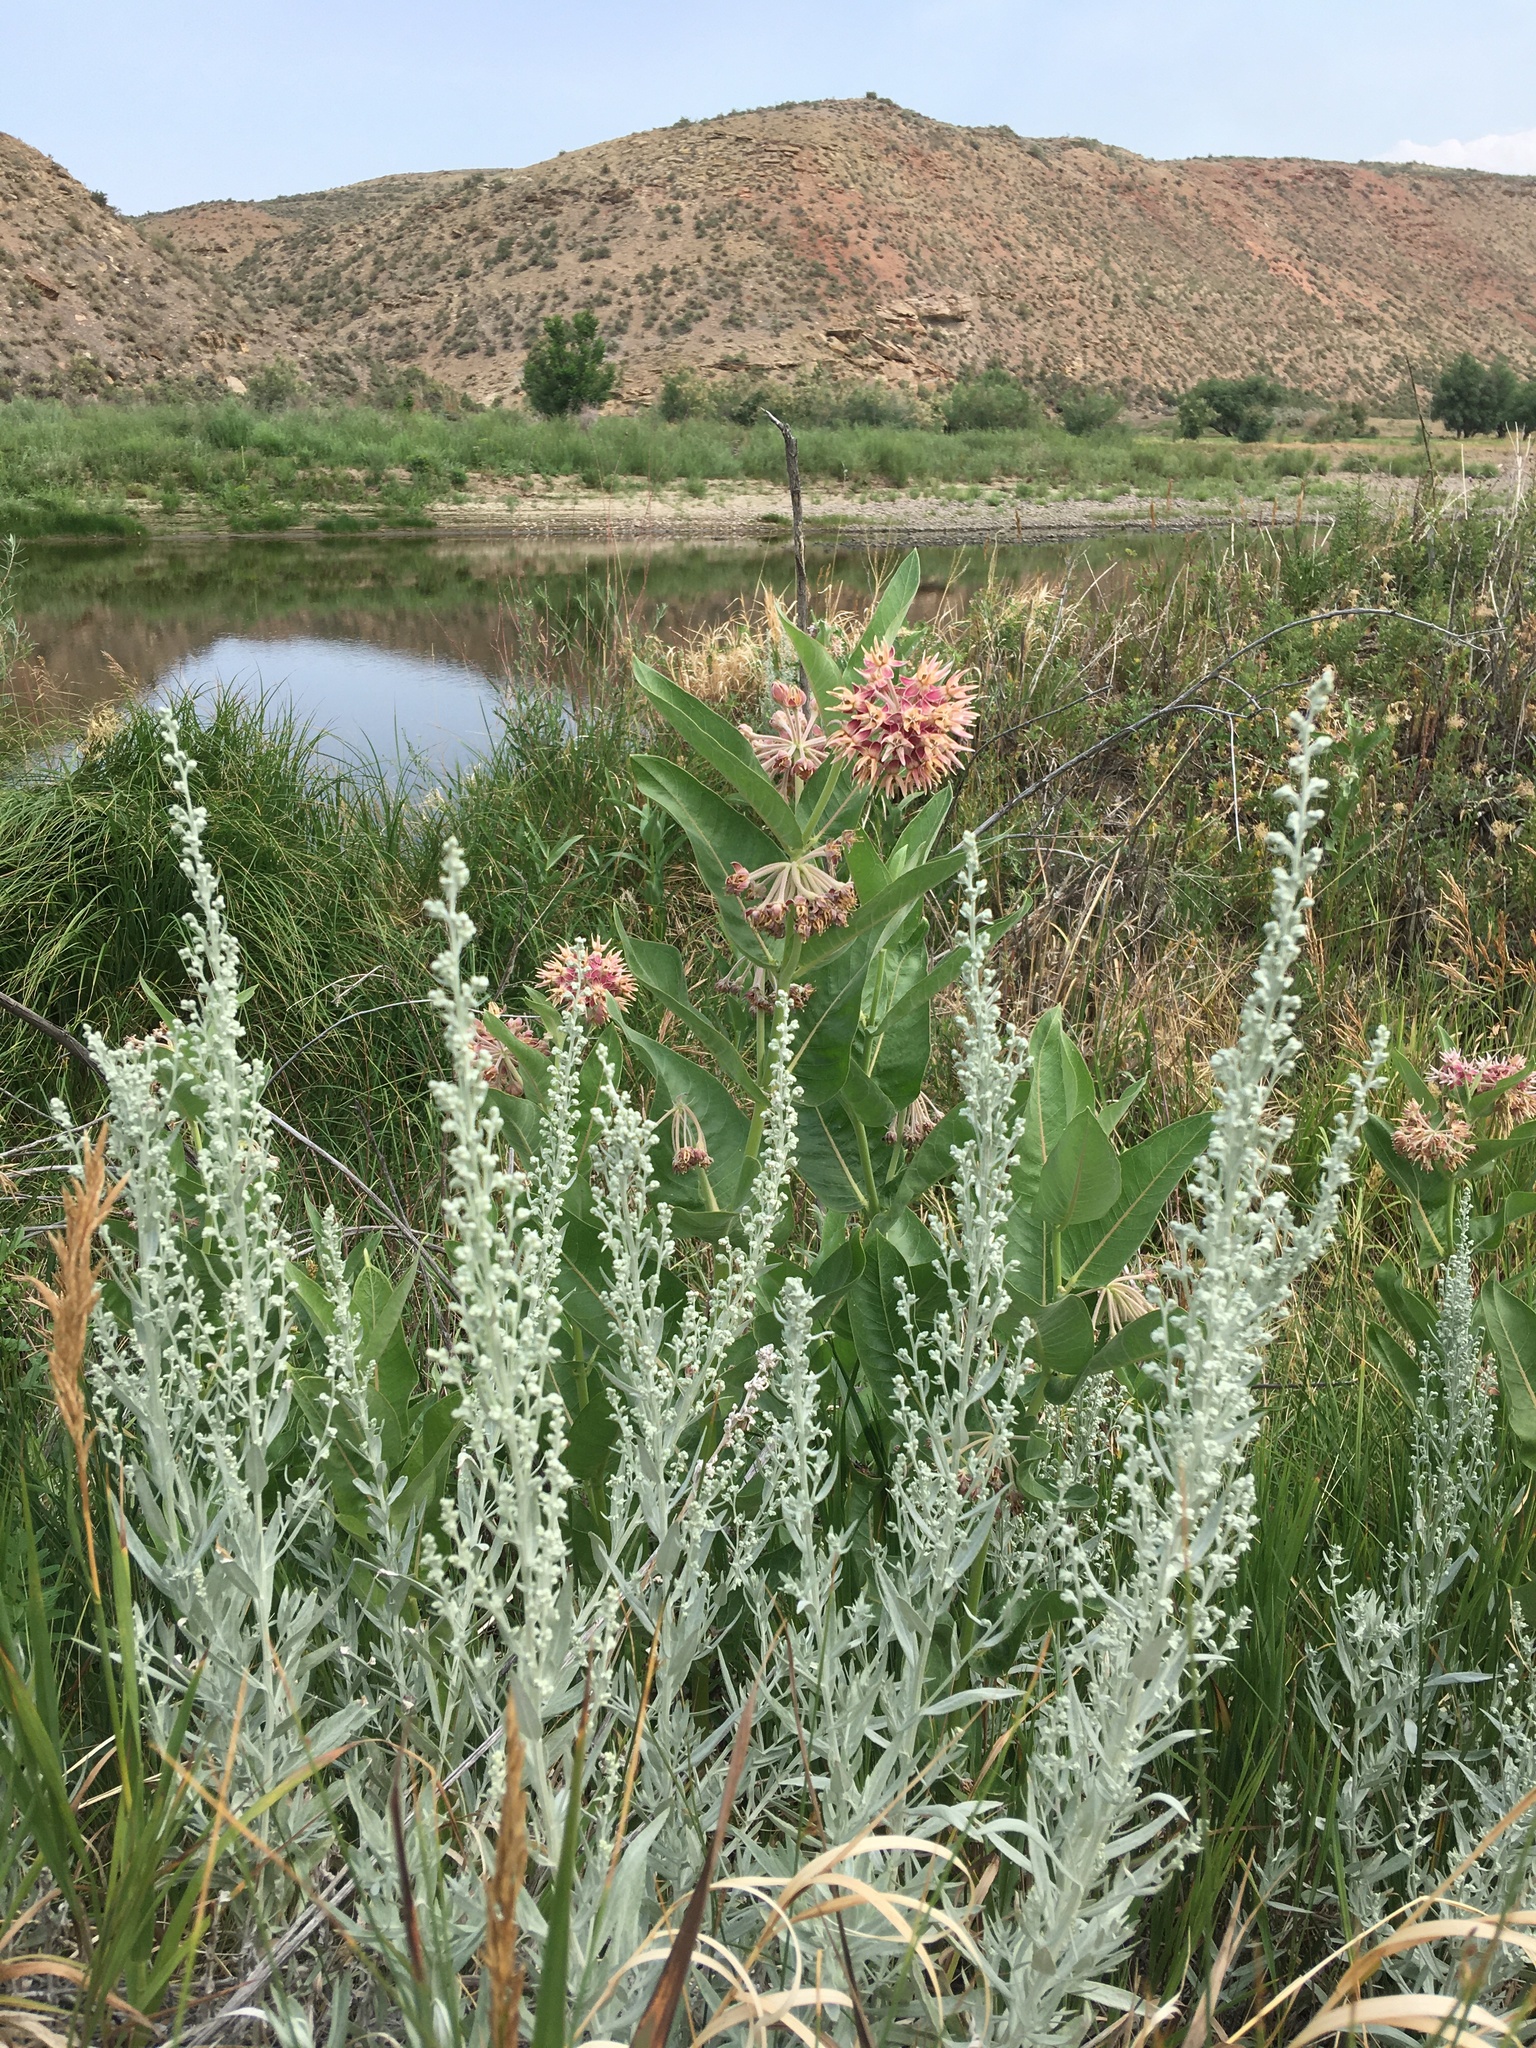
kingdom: Plantae
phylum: Tracheophyta
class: Magnoliopsida
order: Gentianales
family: Apocynaceae
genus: Asclepias
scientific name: Asclepias speciosa
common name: Showy milkweed
